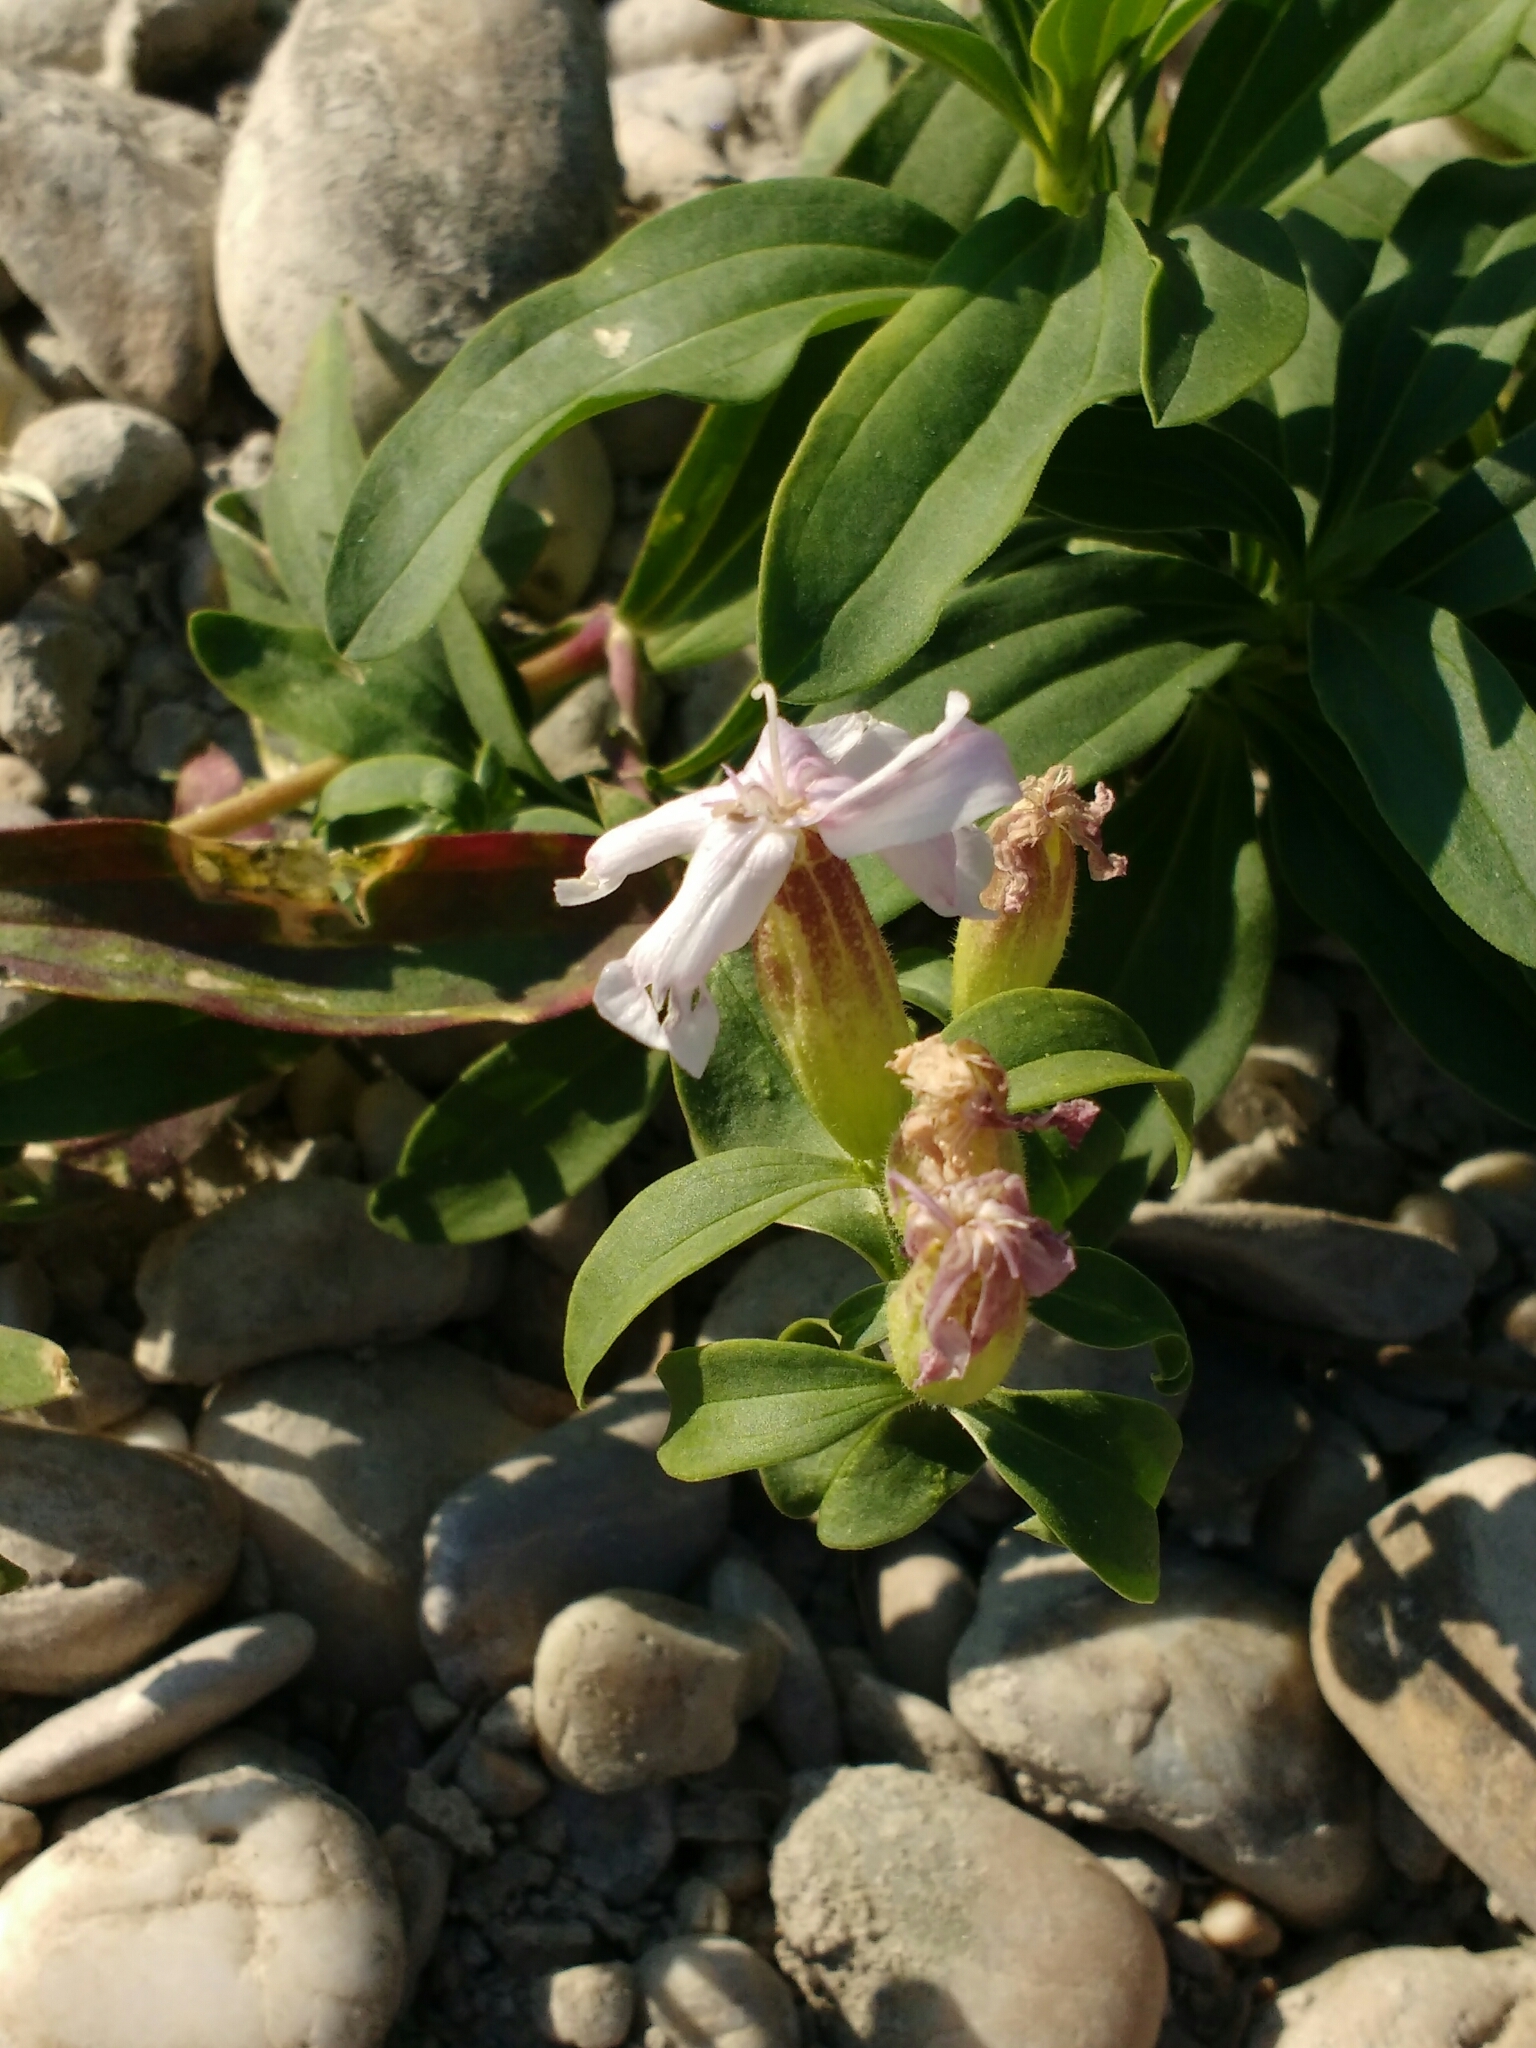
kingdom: Plantae
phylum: Tracheophyta
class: Magnoliopsida
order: Caryophyllales
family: Caryophyllaceae
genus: Saponaria
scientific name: Saponaria officinalis
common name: Soapwort
